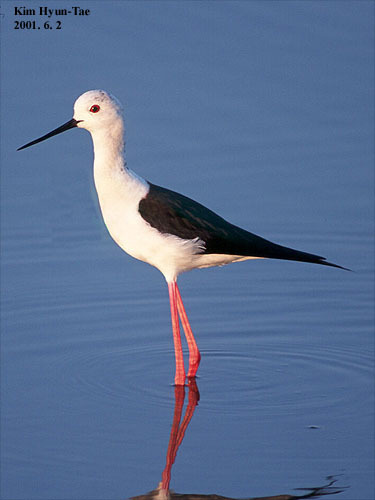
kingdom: Animalia
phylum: Chordata
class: Aves
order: Charadriiformes
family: Recurvirostridae
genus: Himantopus
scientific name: Himantopus himantopus
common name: Black-winged stilt
